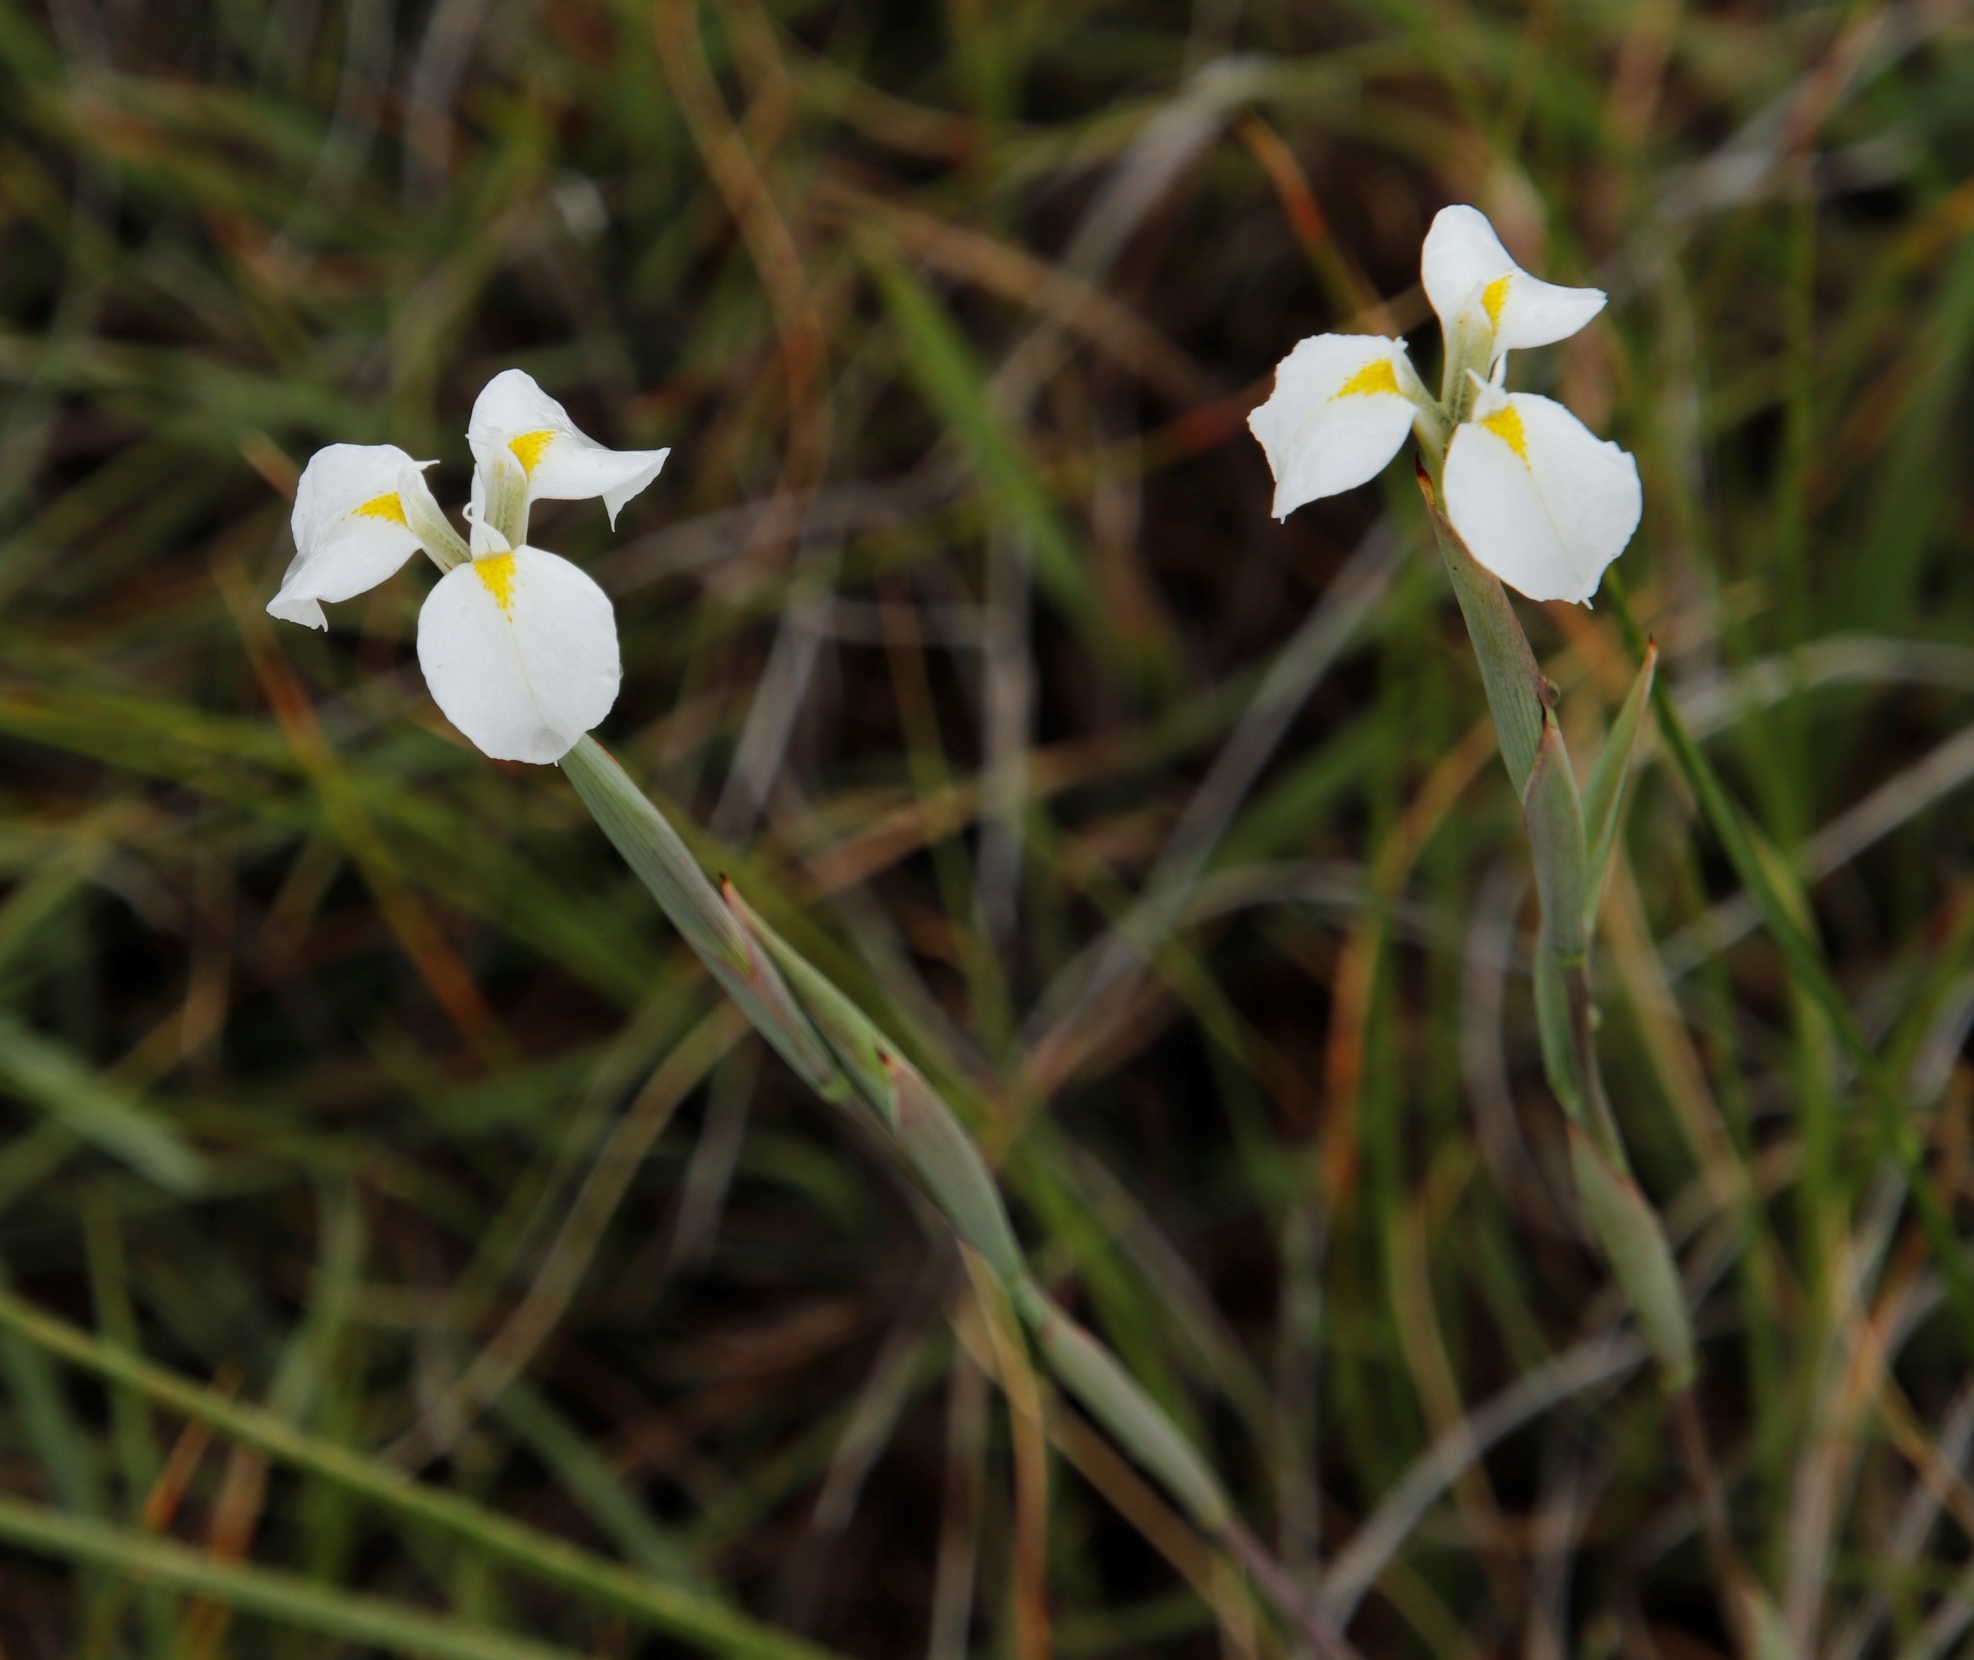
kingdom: Plantae
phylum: Tracheophyta
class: Liliopsida
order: Asparagales
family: Iridaceae
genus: Moraea
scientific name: Moraea albicuspa
